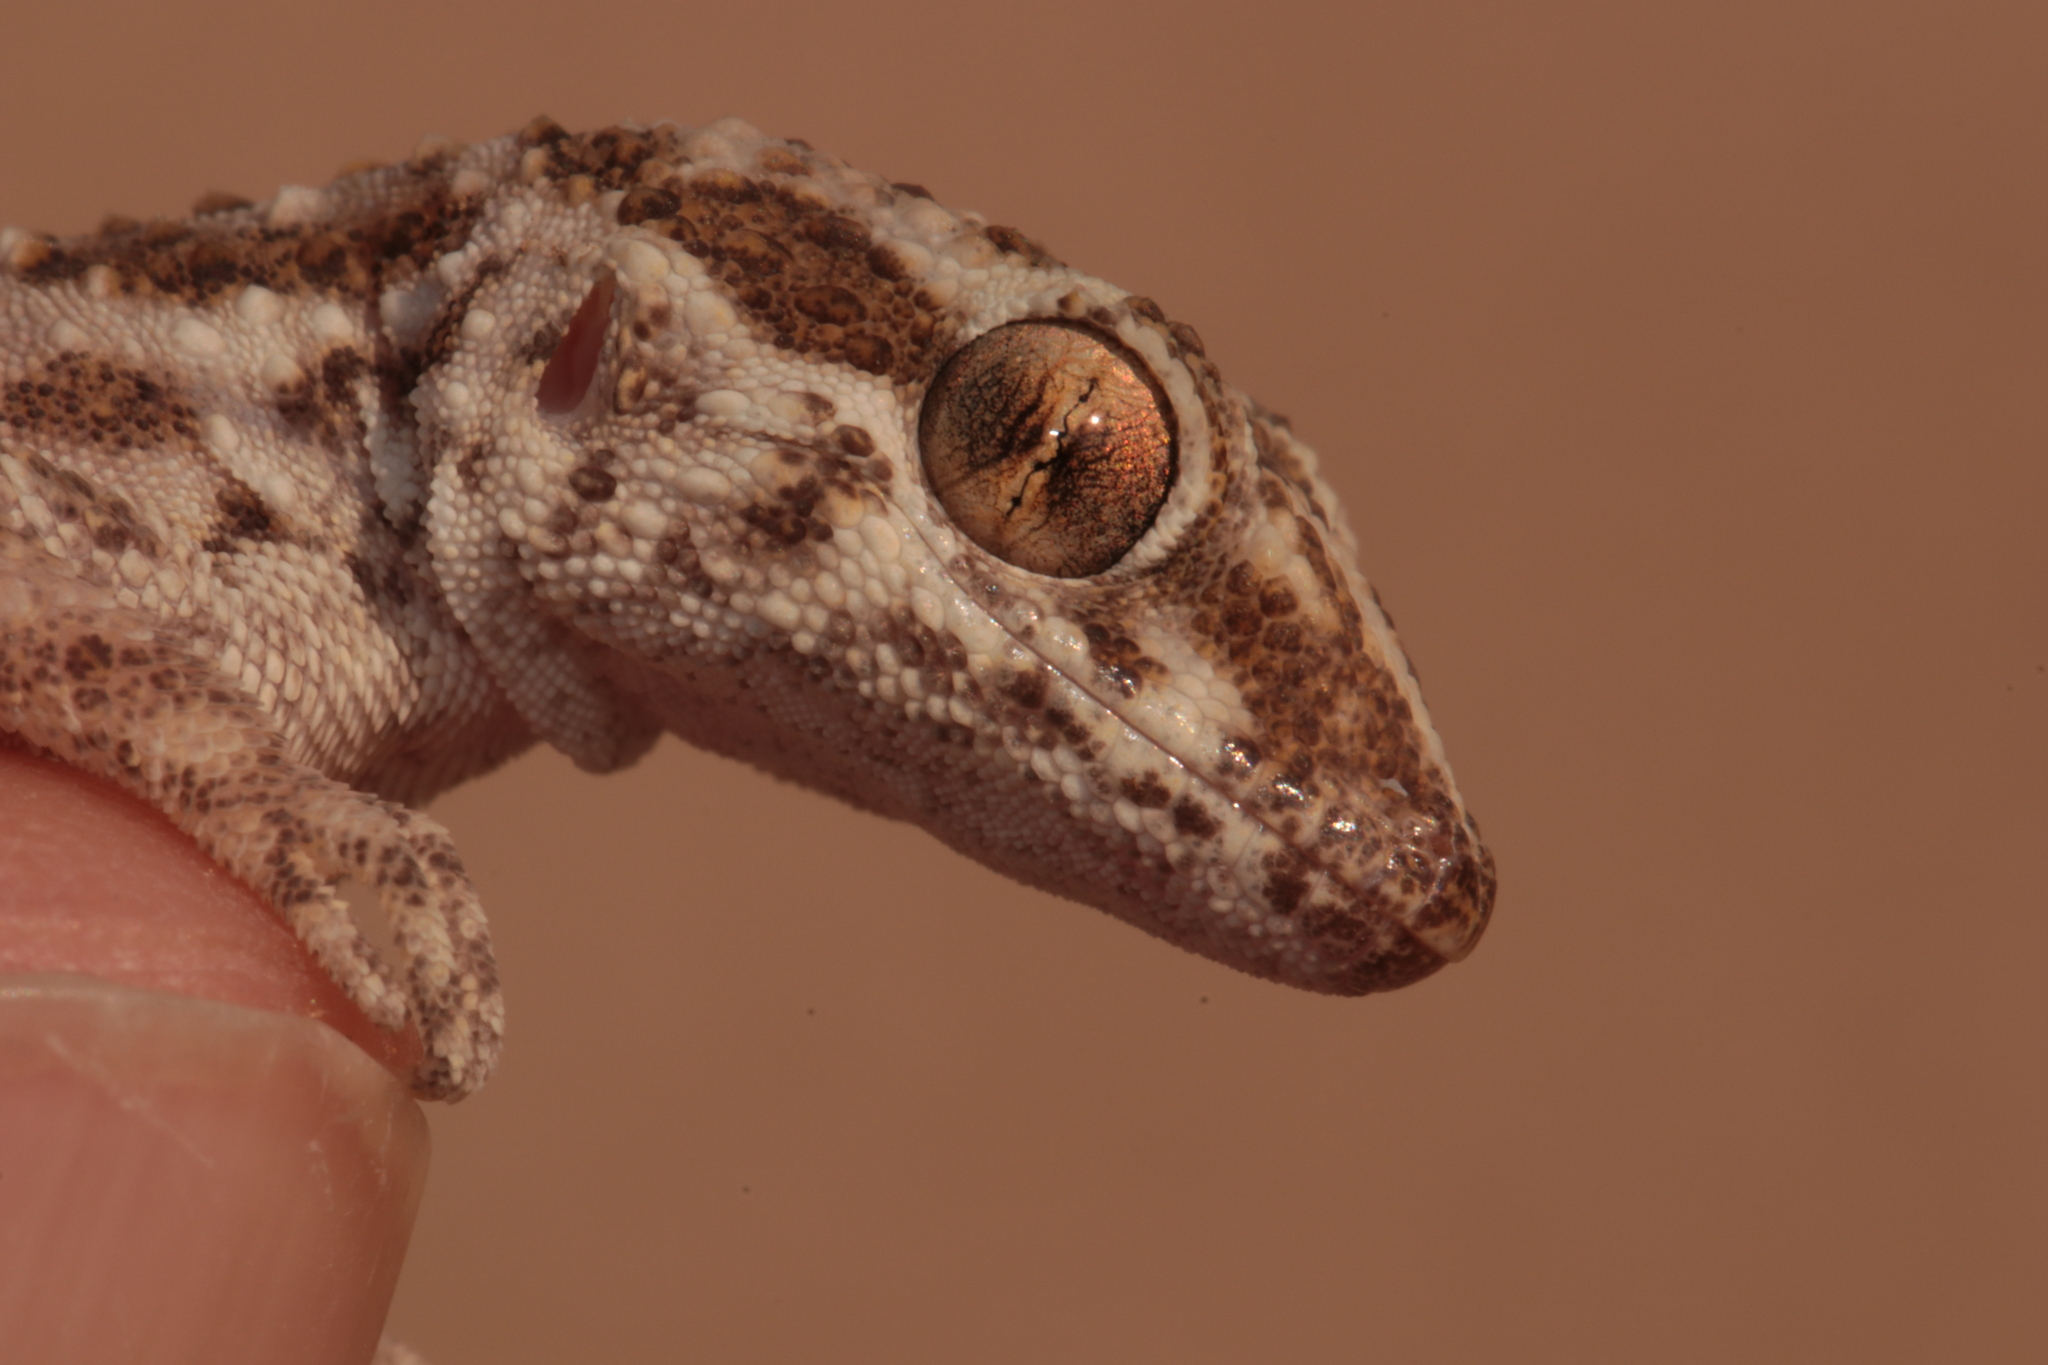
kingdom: Animalia
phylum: Chordata
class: Squamata
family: Gekkonidae
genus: Bunopus
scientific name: Bunopus tuberculatus
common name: Southern tuberculated gecko
